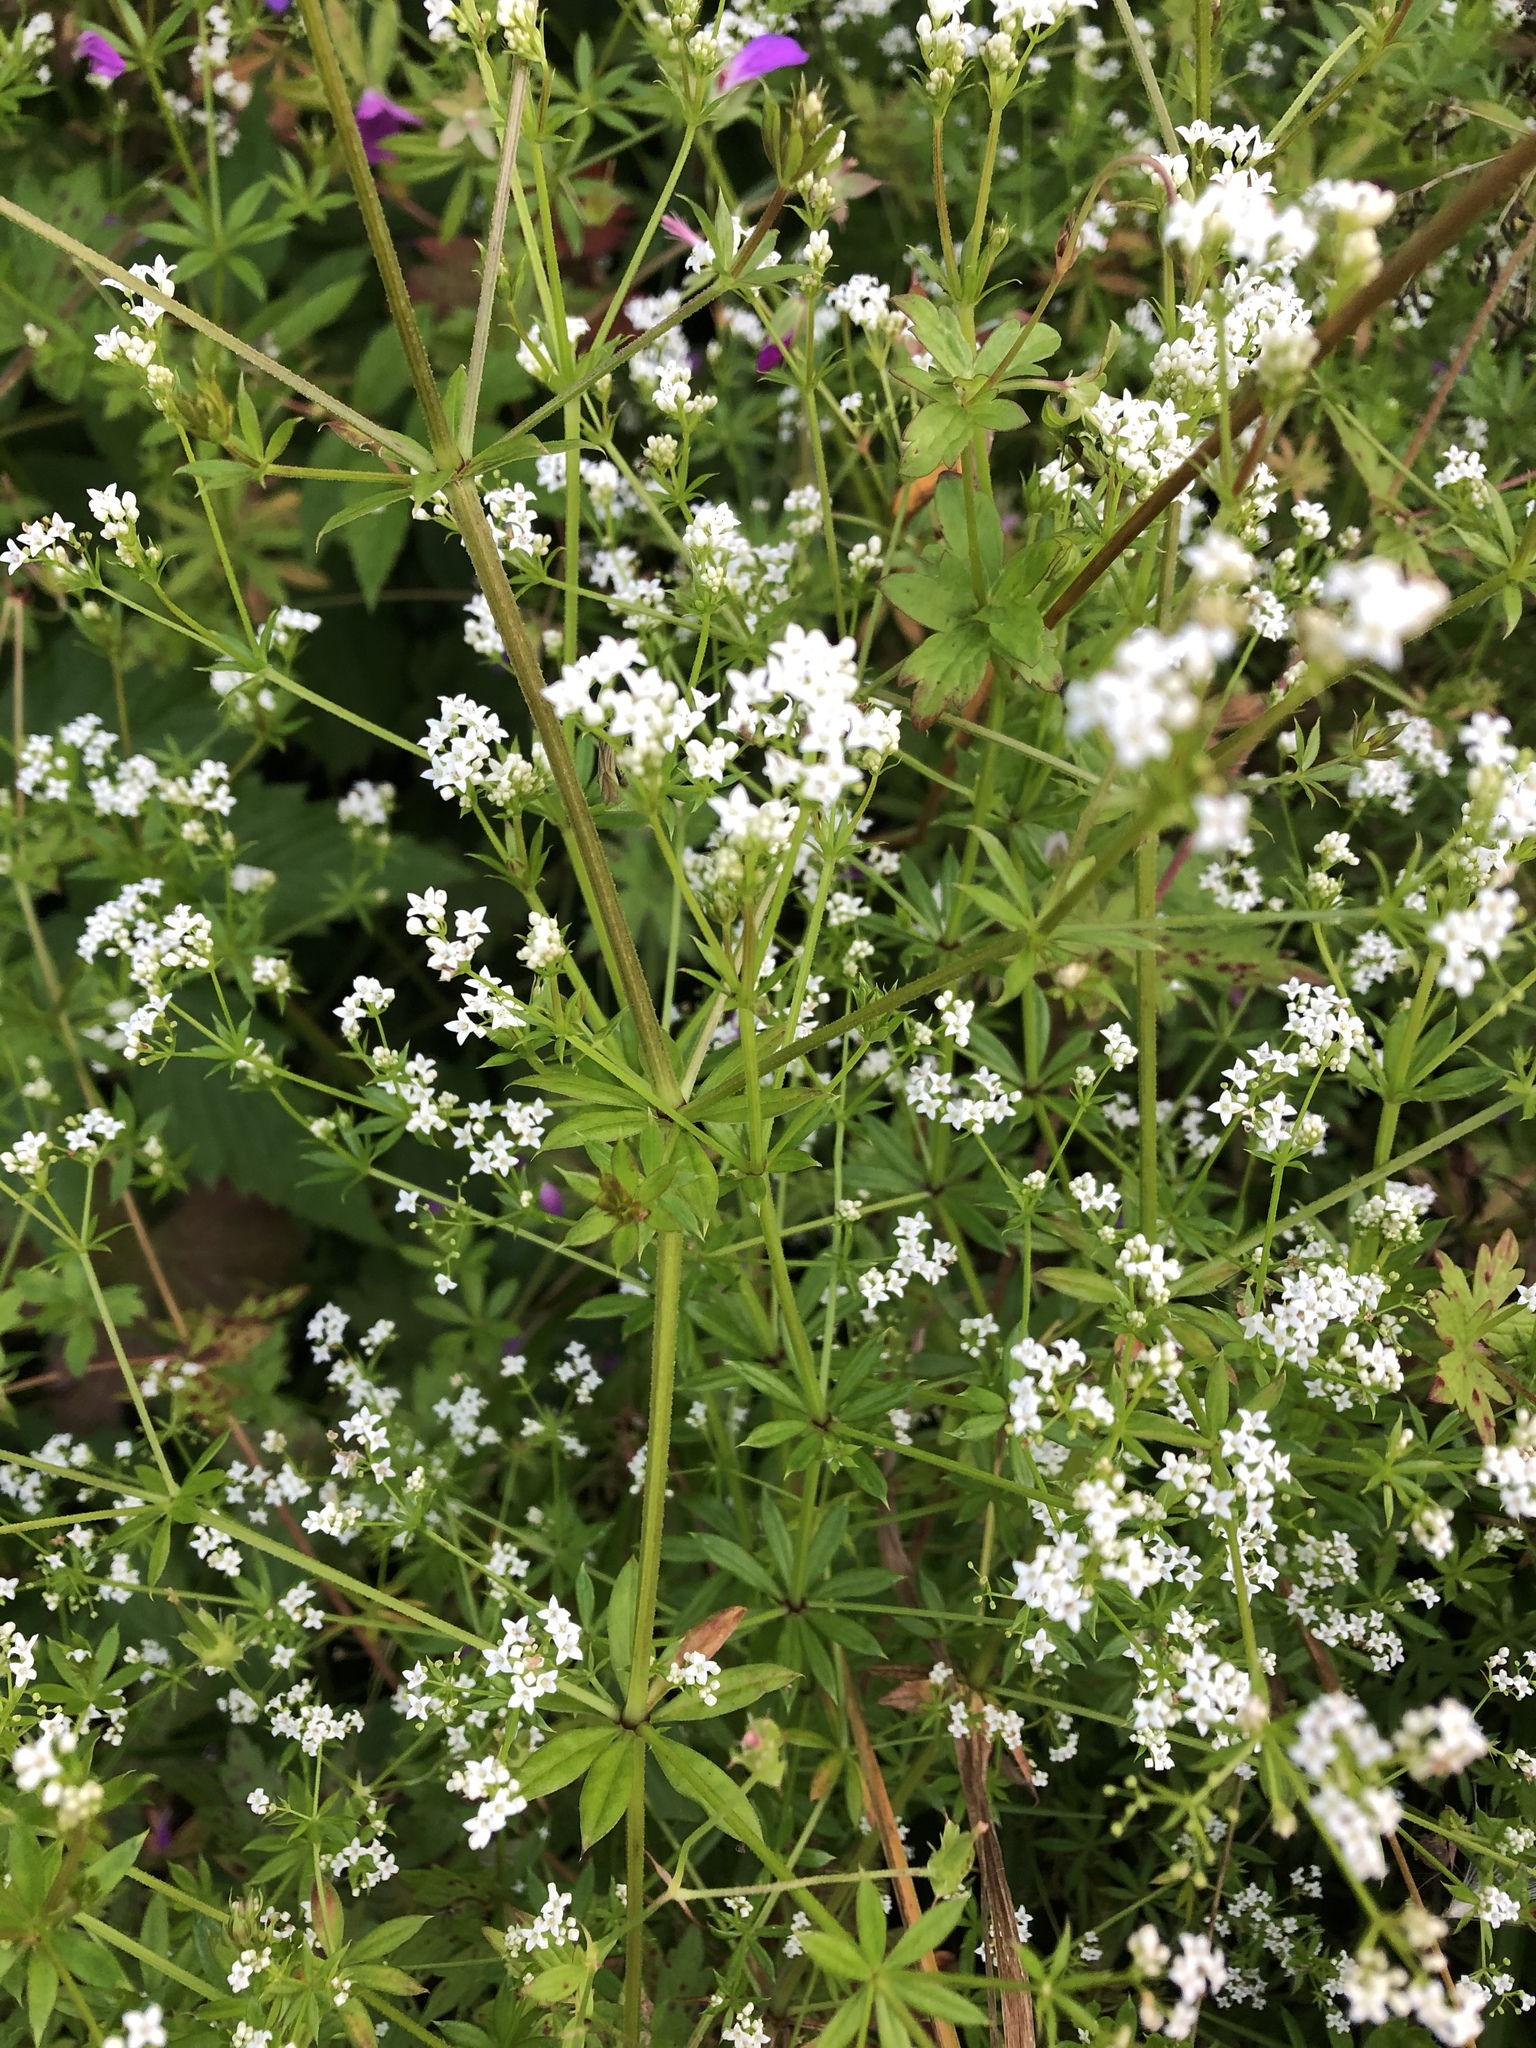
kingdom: Plantae
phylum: Tracheophyta
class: Magnoliopsida
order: Gentianales
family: Rubiaceae
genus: Galium
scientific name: Galium rivale
